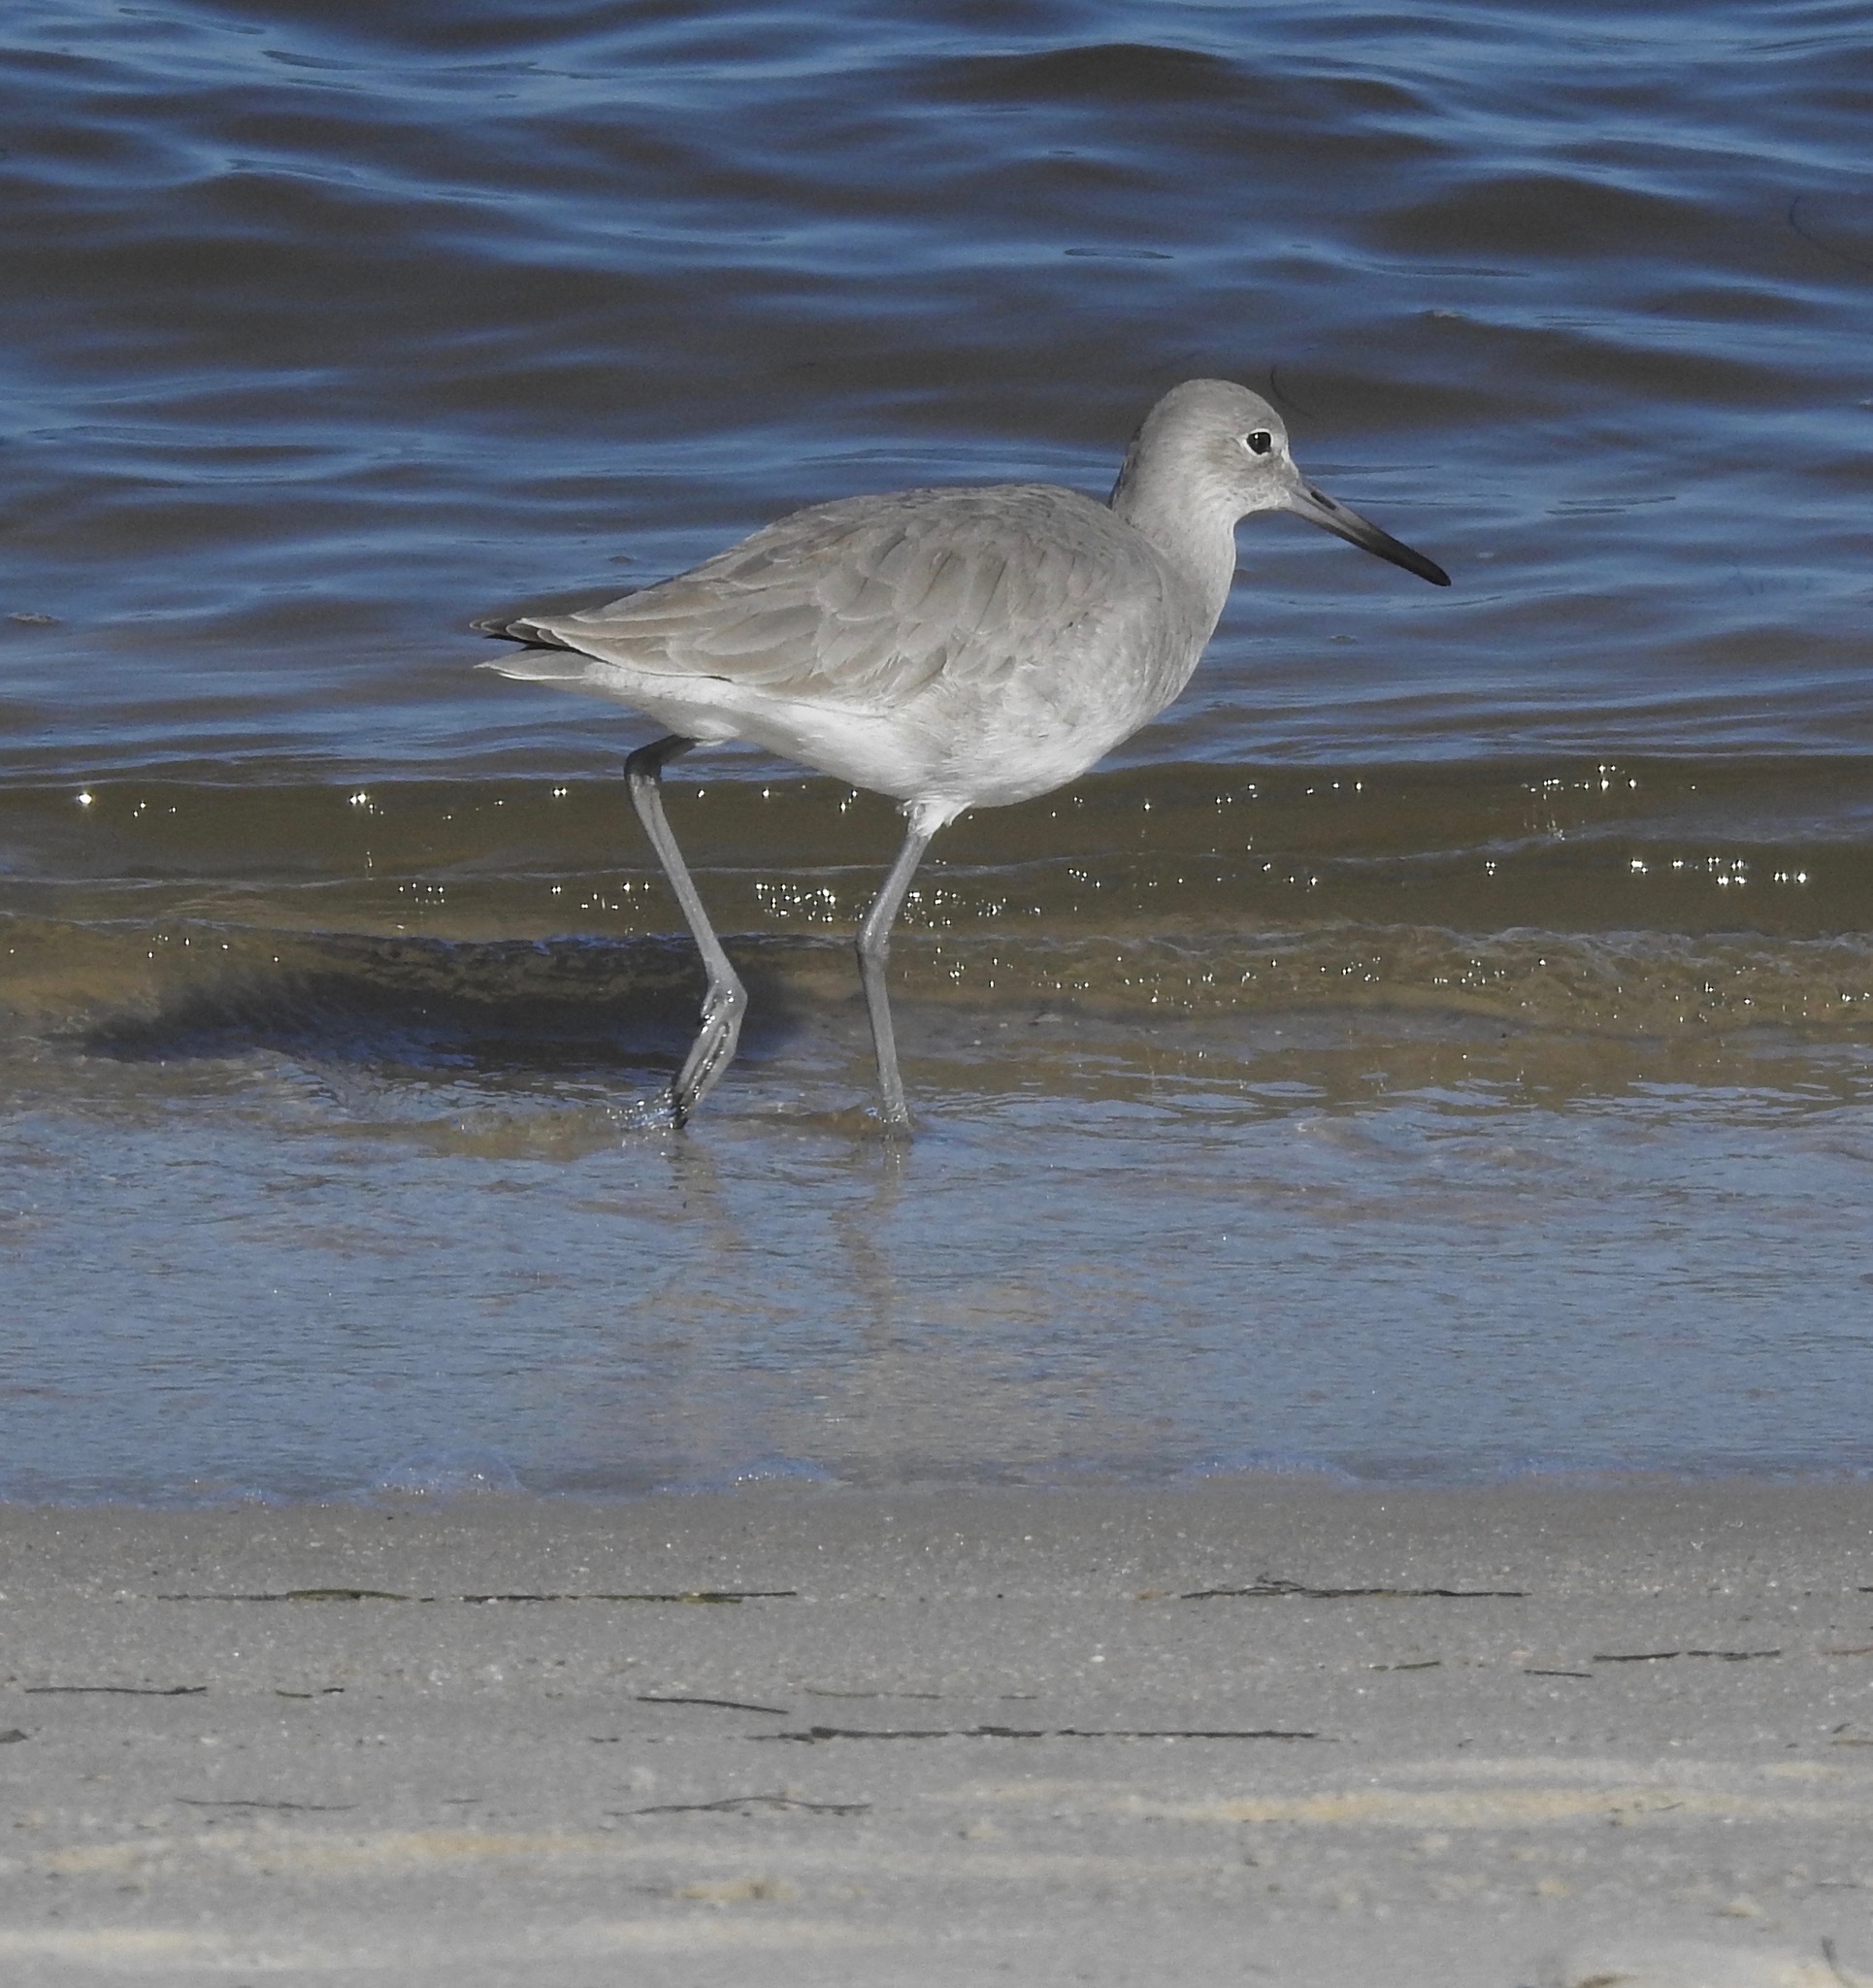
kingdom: Animalia
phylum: Chordata
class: Aves
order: Charadriiformes
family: Scolopacidae
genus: Tringa
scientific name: Tringa semipalmata
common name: Willet
